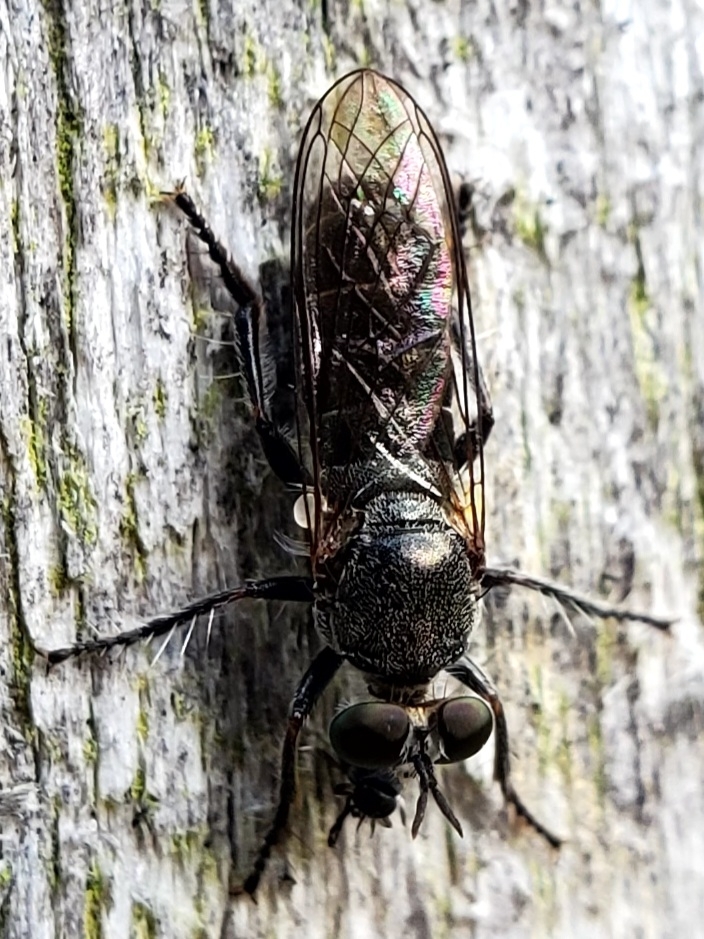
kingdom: Animalia
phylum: Arthropoda
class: Insecta
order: Diptera
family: Asilidae
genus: Atomosia
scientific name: Atomosia puella
